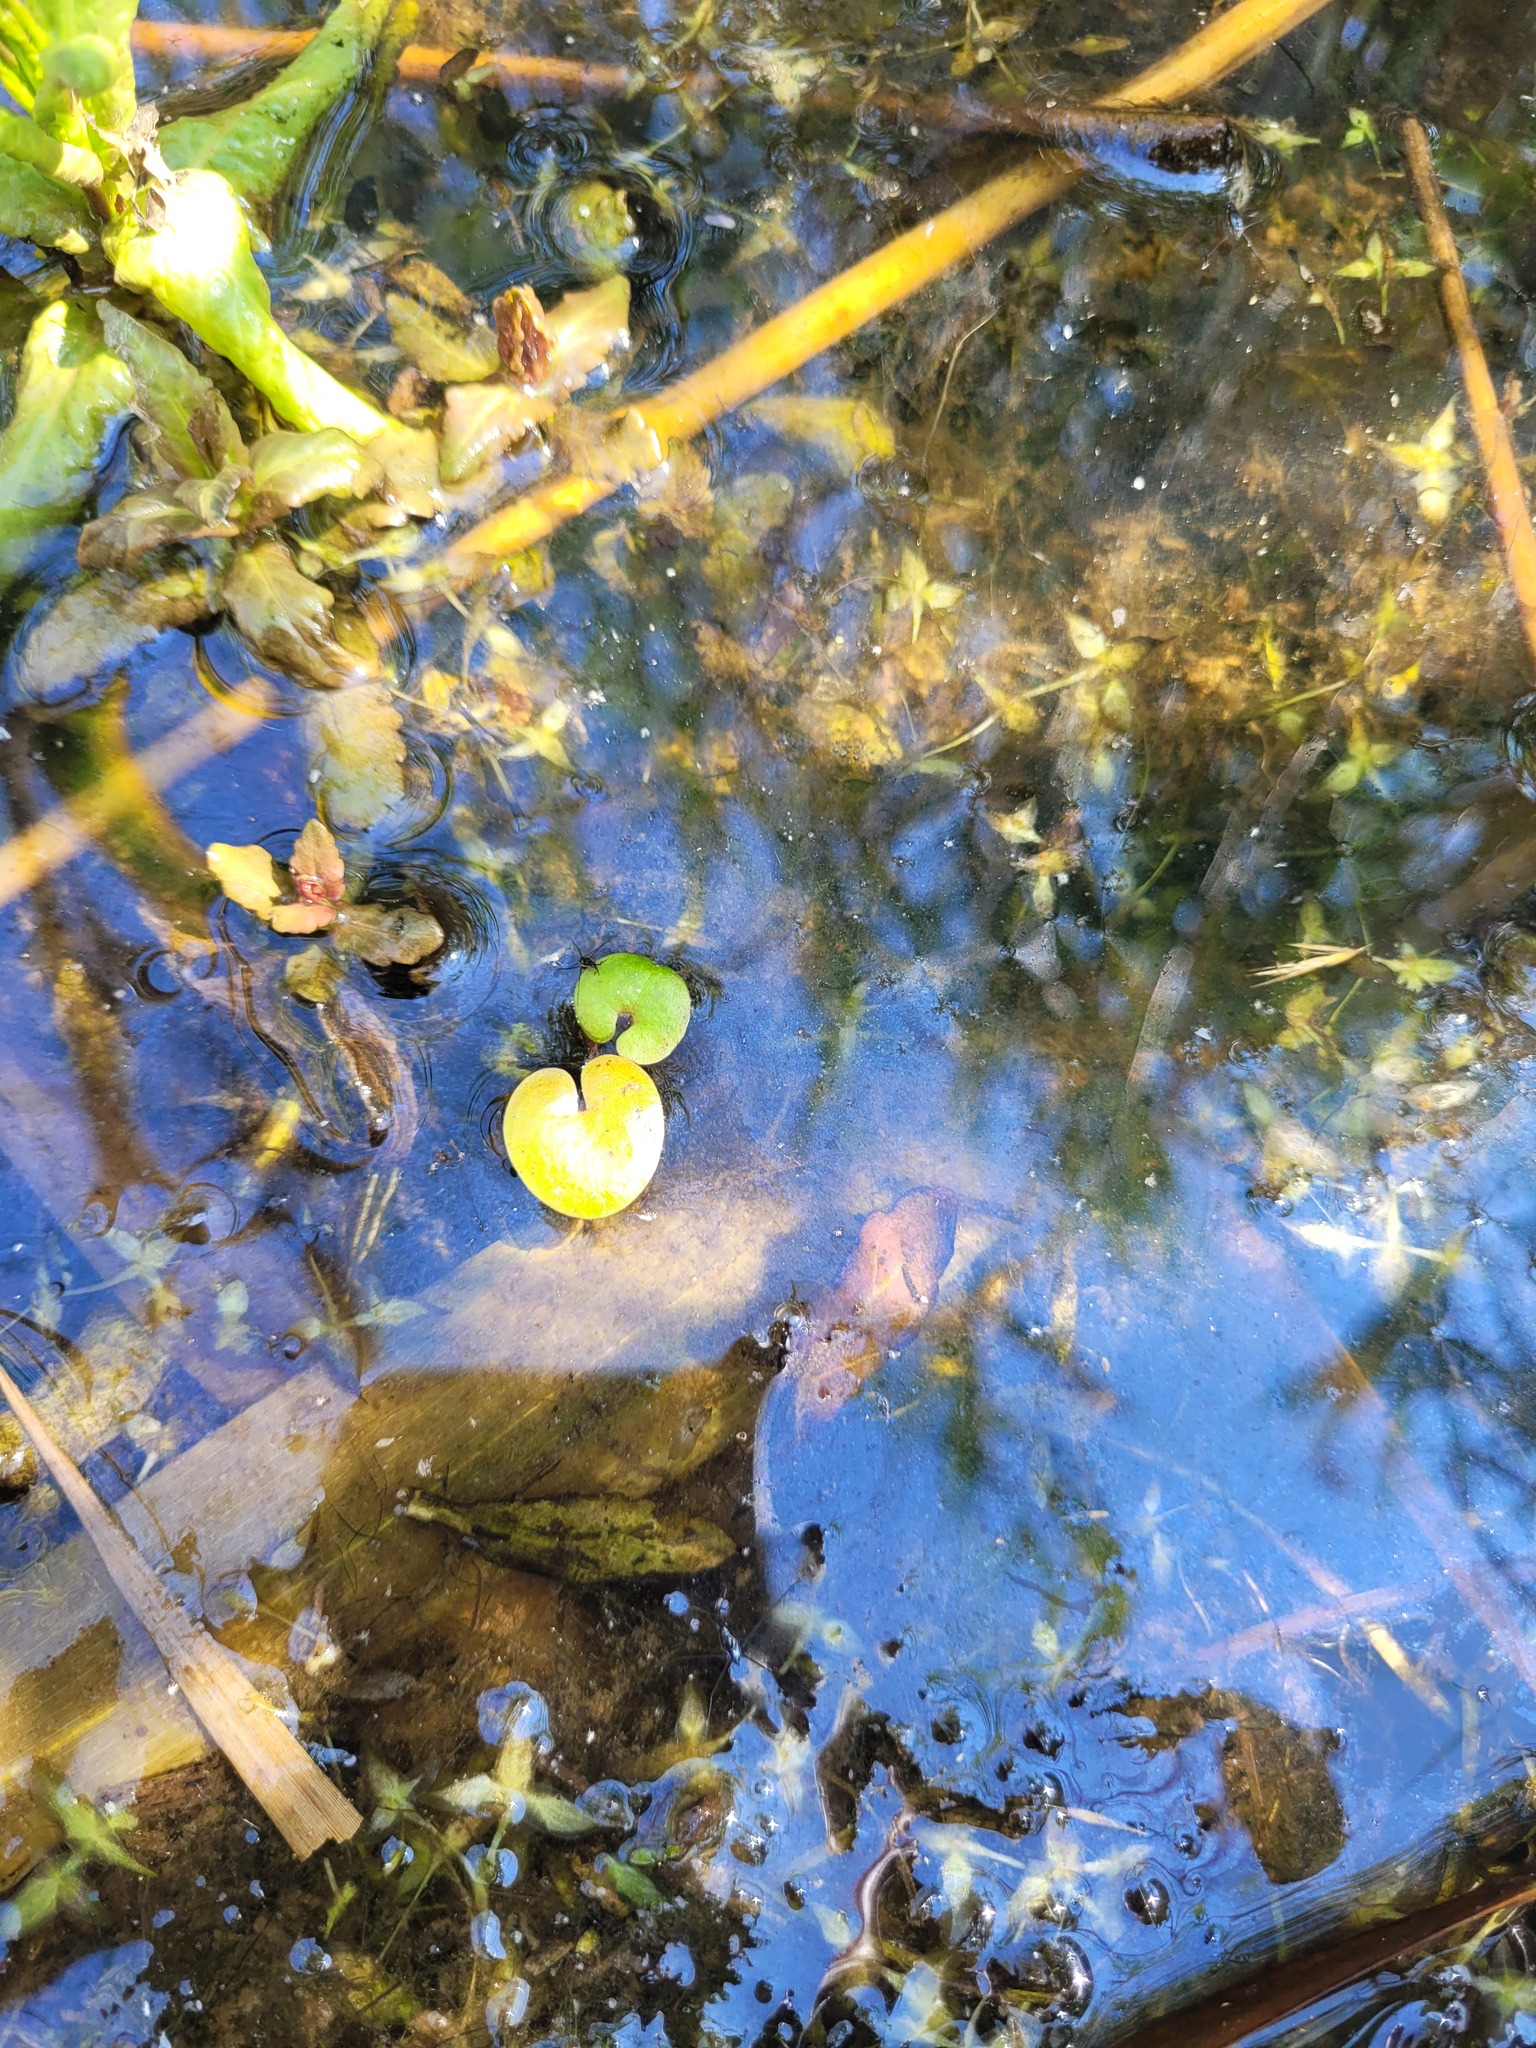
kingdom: Plantae
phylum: Tracheophyta
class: Liliopsida
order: Alismatales
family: Hydrocharitaceae
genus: Hydrocharis
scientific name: Hydrocharis morsus-ranae
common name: Frogbit
